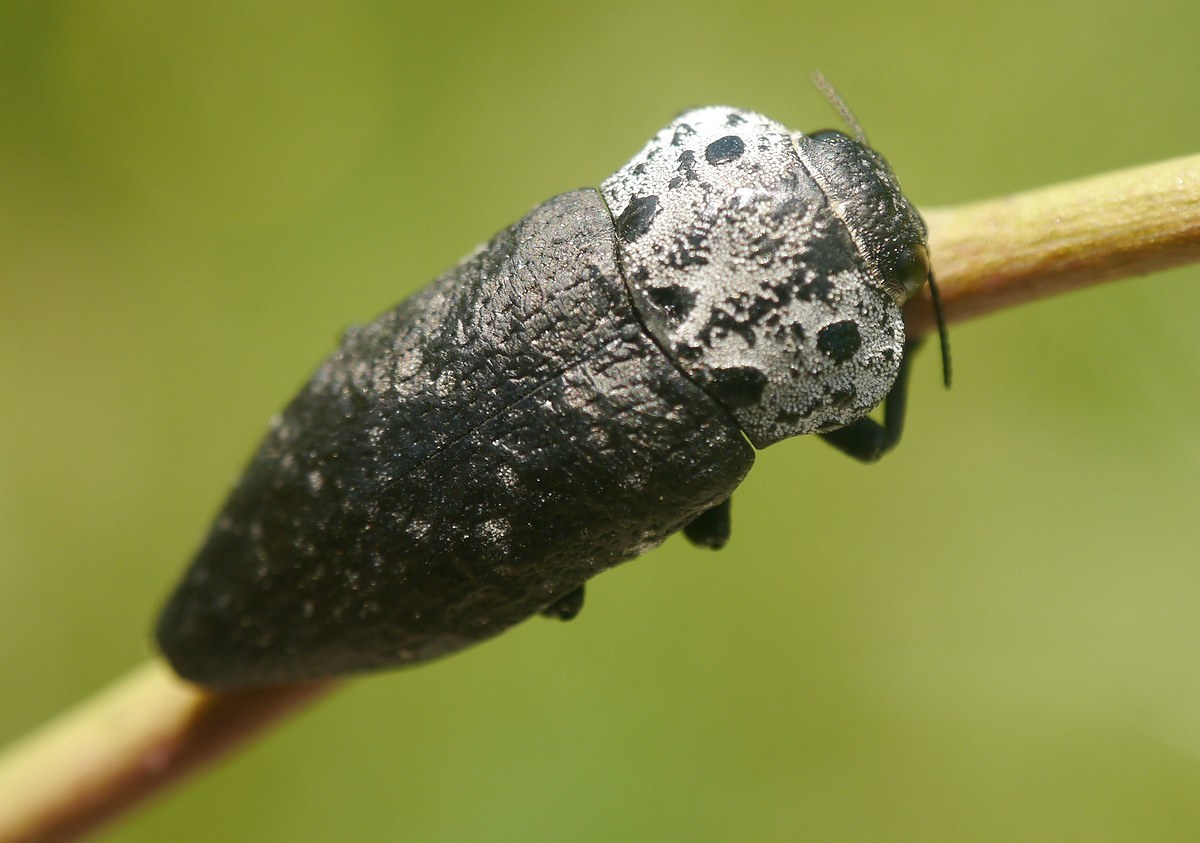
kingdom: Animalia
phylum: Arthropoda
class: Insecta
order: Coleoptera
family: Buprestidae
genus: Capnodis
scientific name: Capnodis tenebrionis
